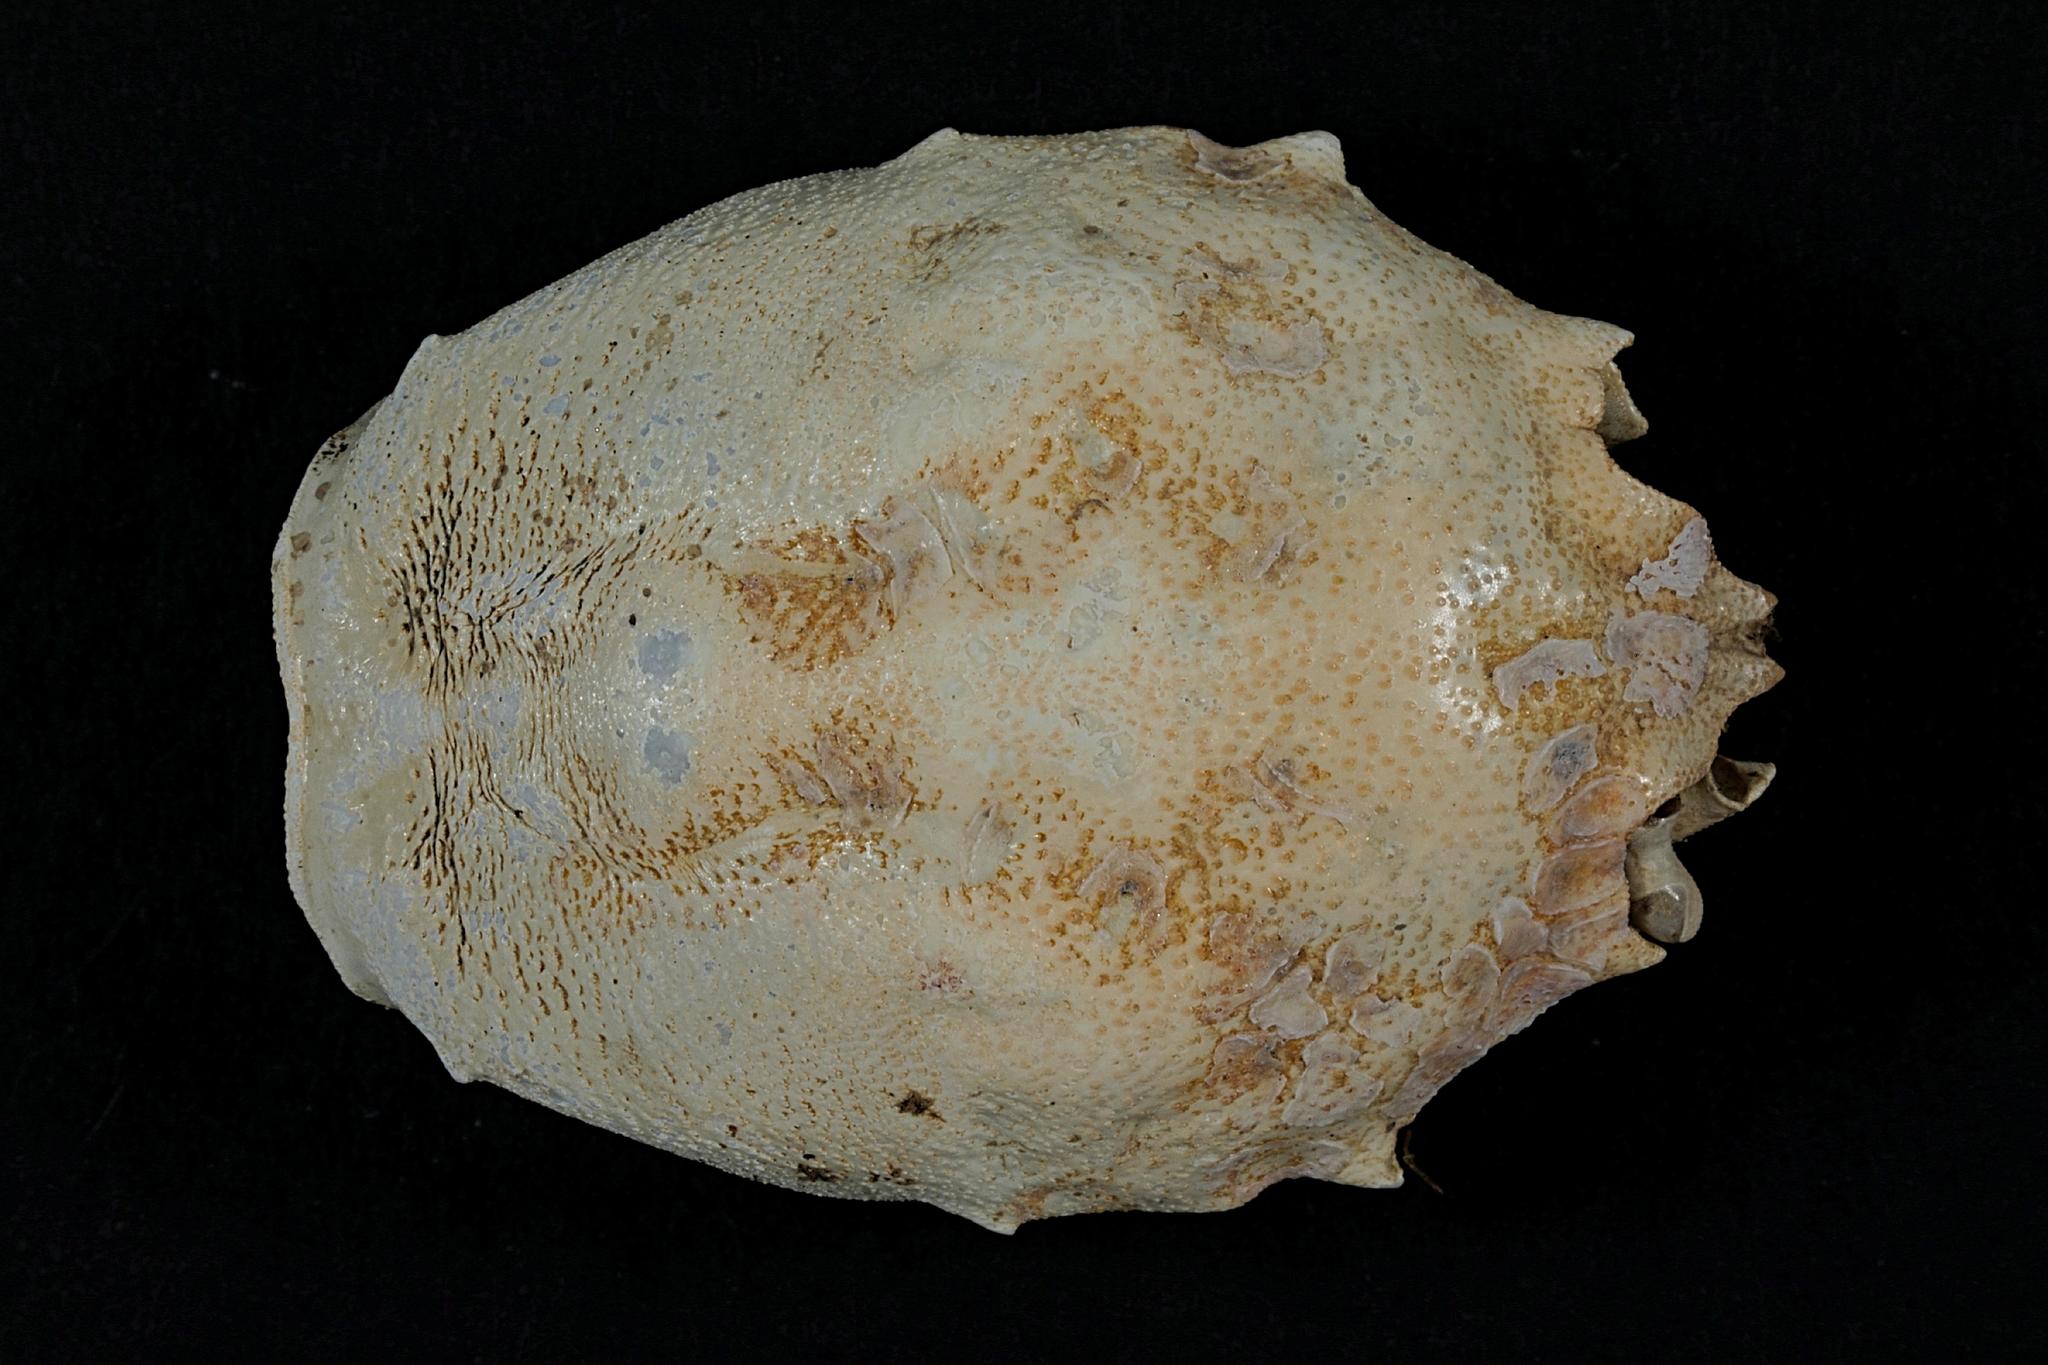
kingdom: Animalia
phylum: Arthropoda
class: Malacostraca
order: Decapoda
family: Corystidae
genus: Corystes
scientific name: Corystes cassivelaunus
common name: Masked crab
